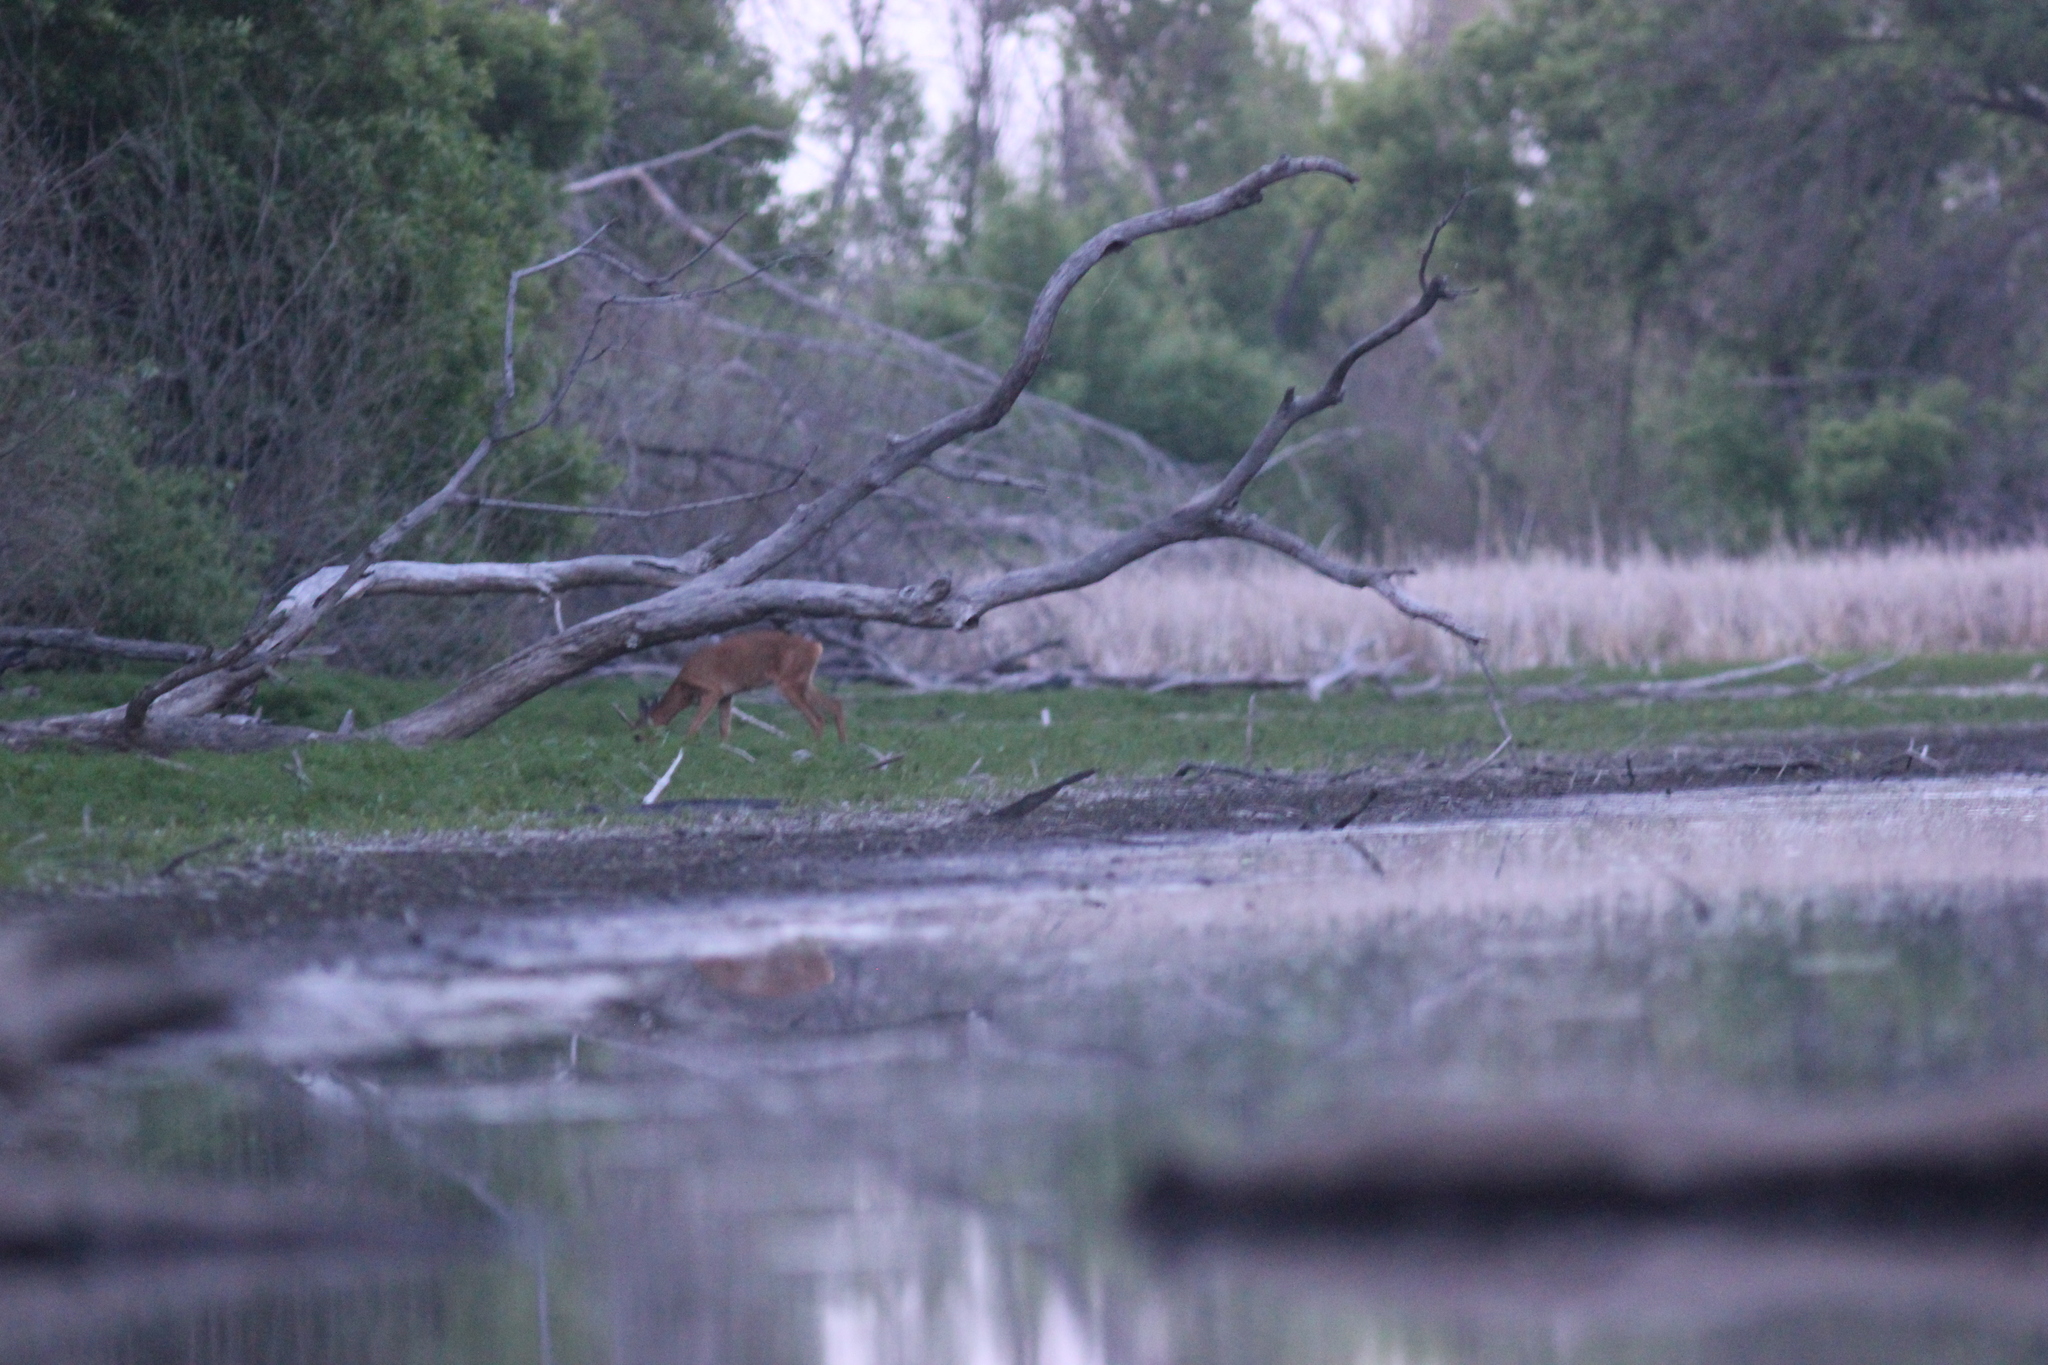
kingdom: Animalia
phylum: Chordata
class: Mammalia
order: Artiodactyla
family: Cervidae
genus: Capreolus
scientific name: Capreolus pygargus
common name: Siberian roe
